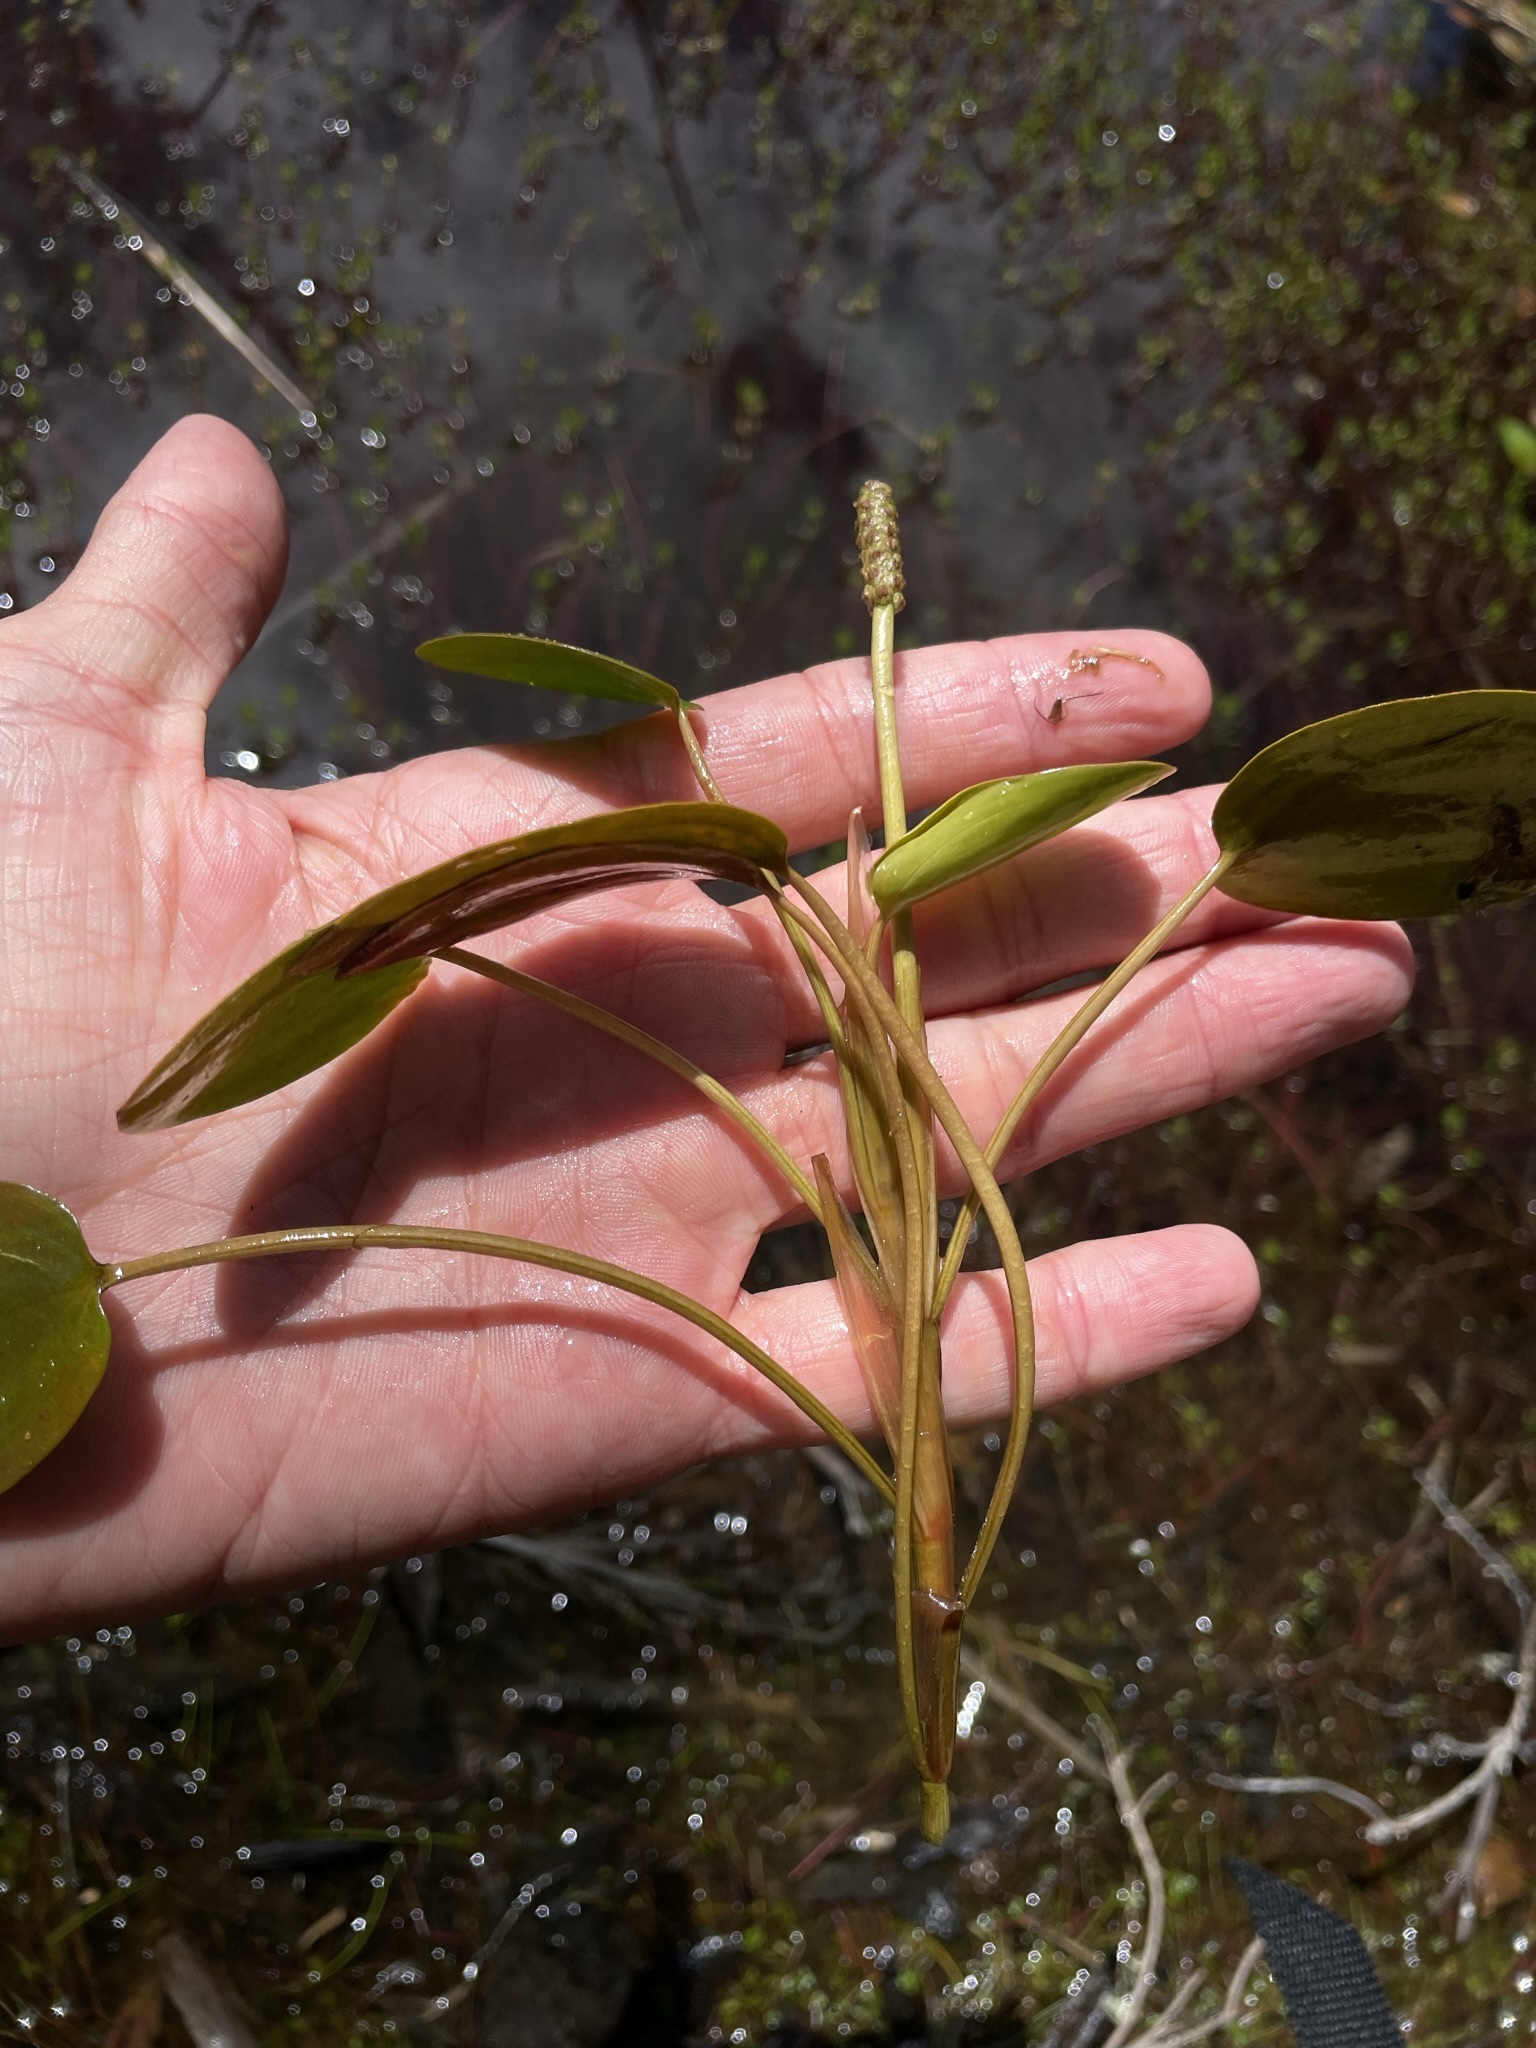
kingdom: Plantae
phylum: Tracheophyta
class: Liliopsida
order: Alismatales
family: Potamogetonaceae
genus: Potamogeton
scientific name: Potamogeton cheesemanii
